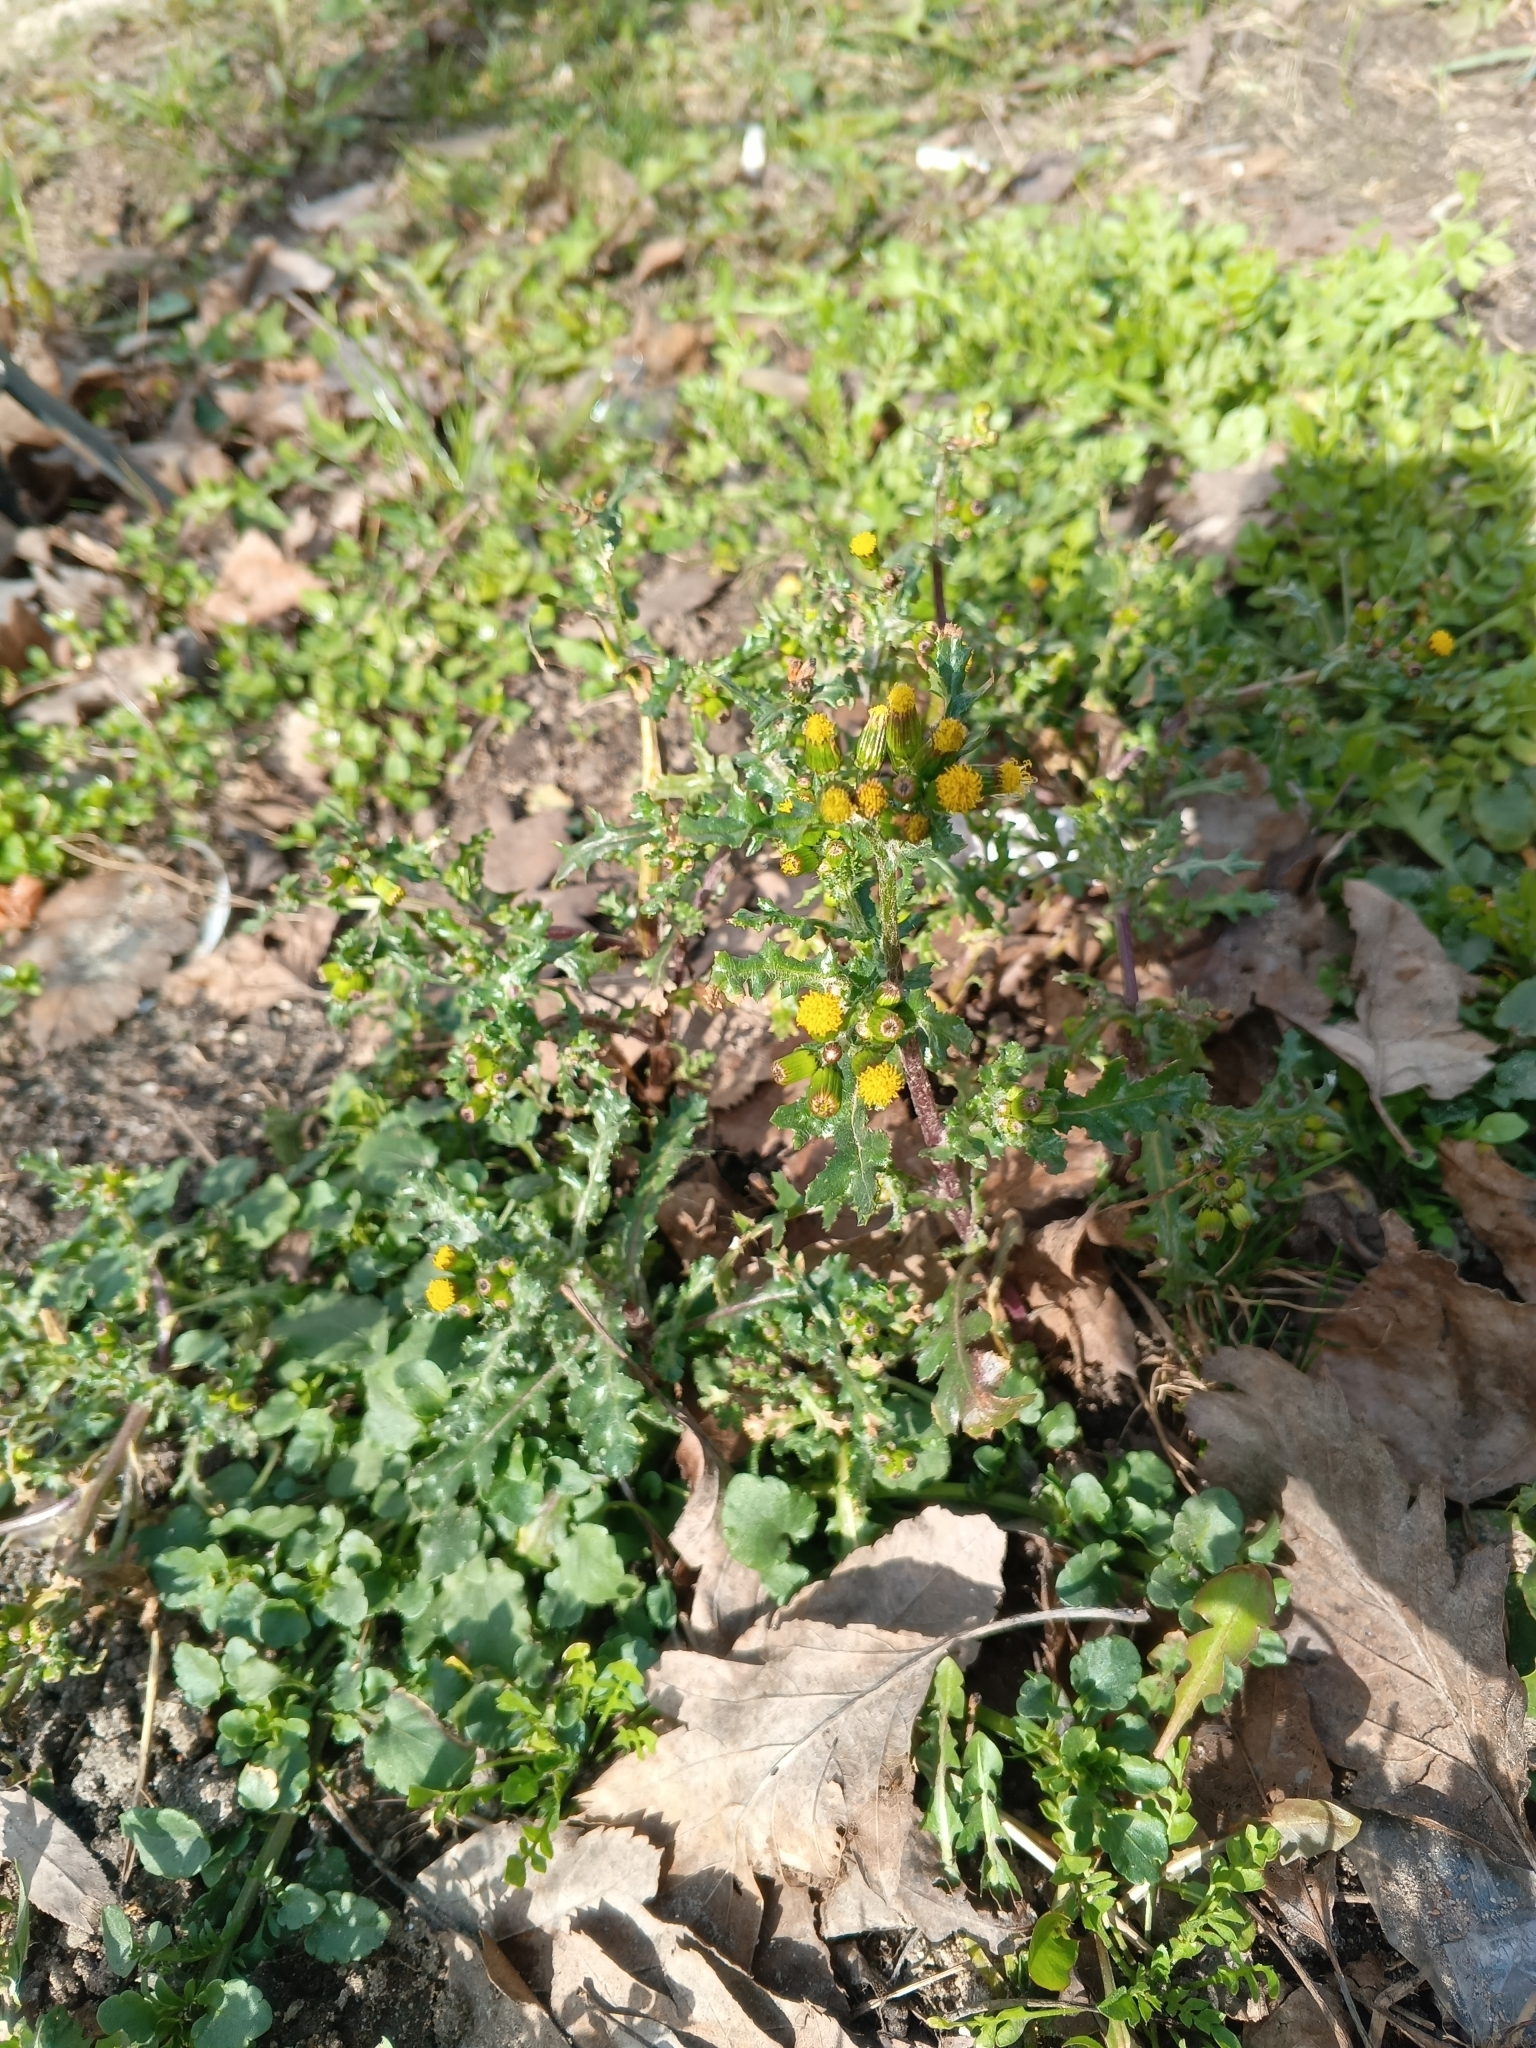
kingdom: Plantae
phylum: Tracheophyta
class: Magnoliopsida
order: Asterales
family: Asteraceae
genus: Senecio
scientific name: Senecio vulgaris
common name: Old-man-in-the-spring
